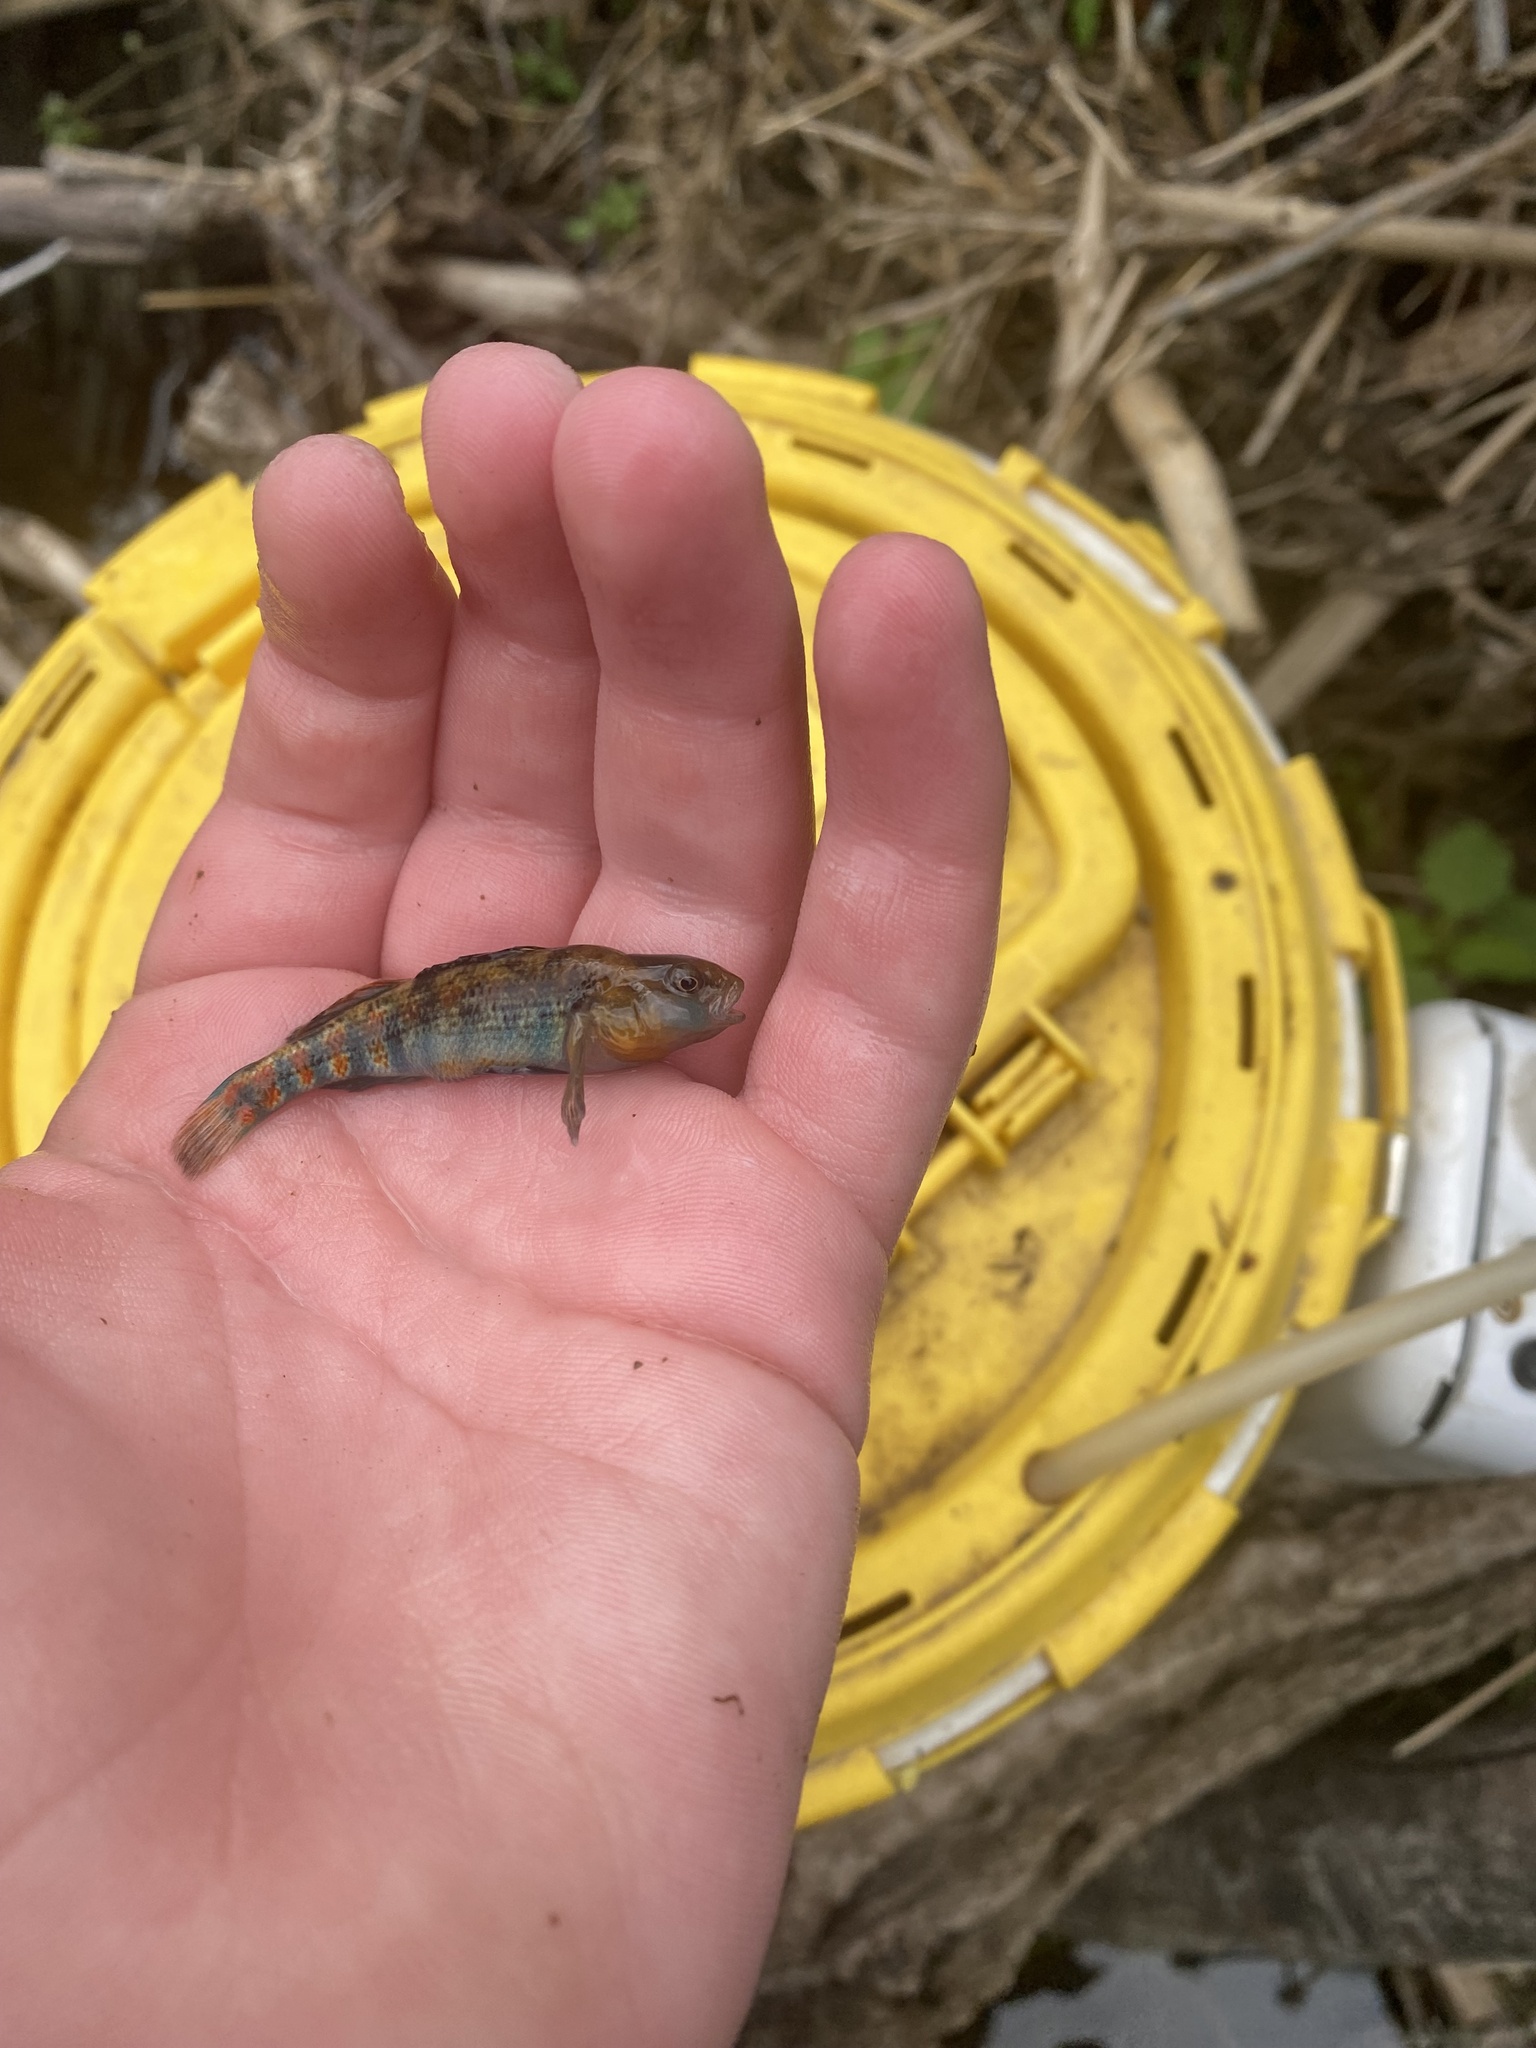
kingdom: Animalia
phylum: Chordata
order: Perciformes
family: Percidae
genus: Etheostoma
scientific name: Etheostoma spectabile
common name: Orangethroat darter
